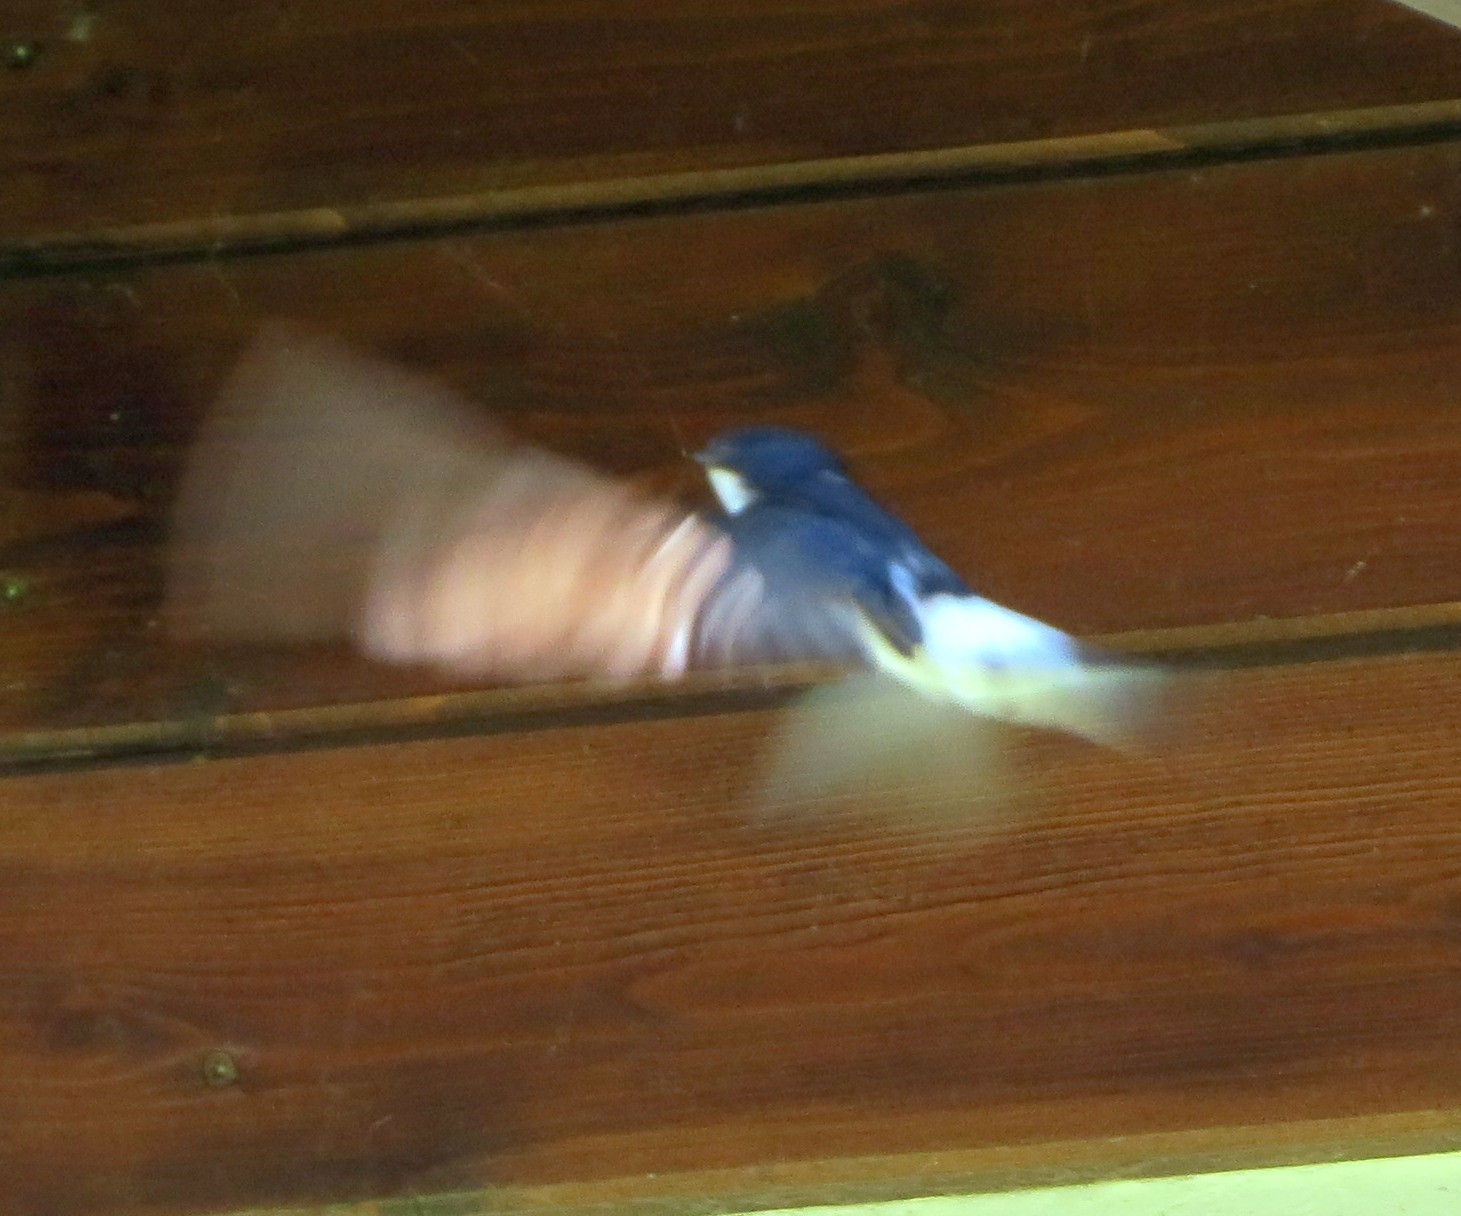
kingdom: Animalia
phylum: Chordata
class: Aves
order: Passeriformes
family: Hirundinidae
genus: Delichon
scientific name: Delichon urbicum
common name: Common house martin
